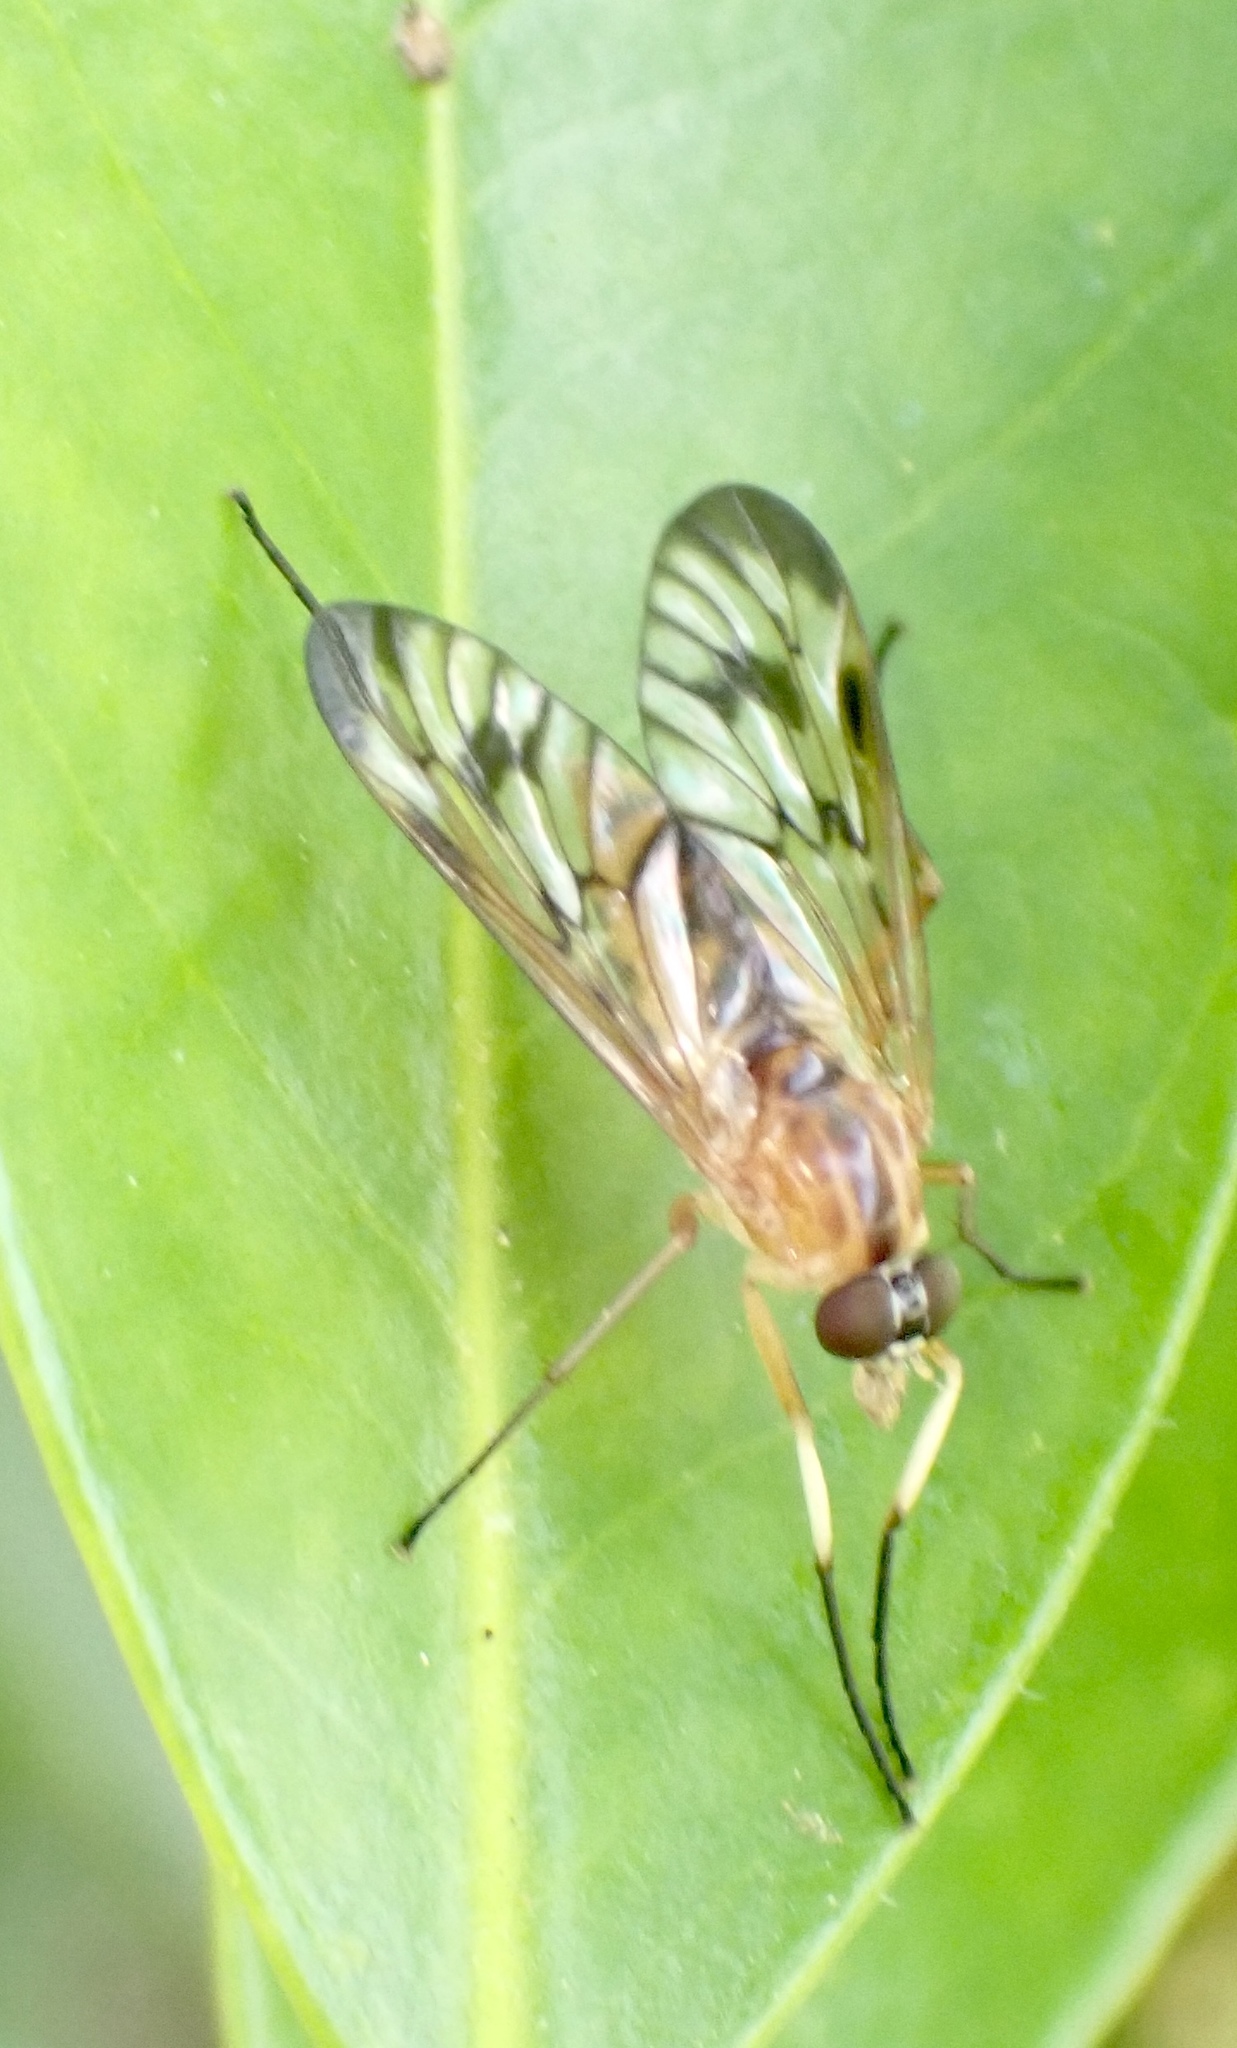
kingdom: Animalia
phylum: Arthropoda
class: Insecta
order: Diptera
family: Rhagionidae
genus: Rhagio
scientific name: Rhagio albicornis
